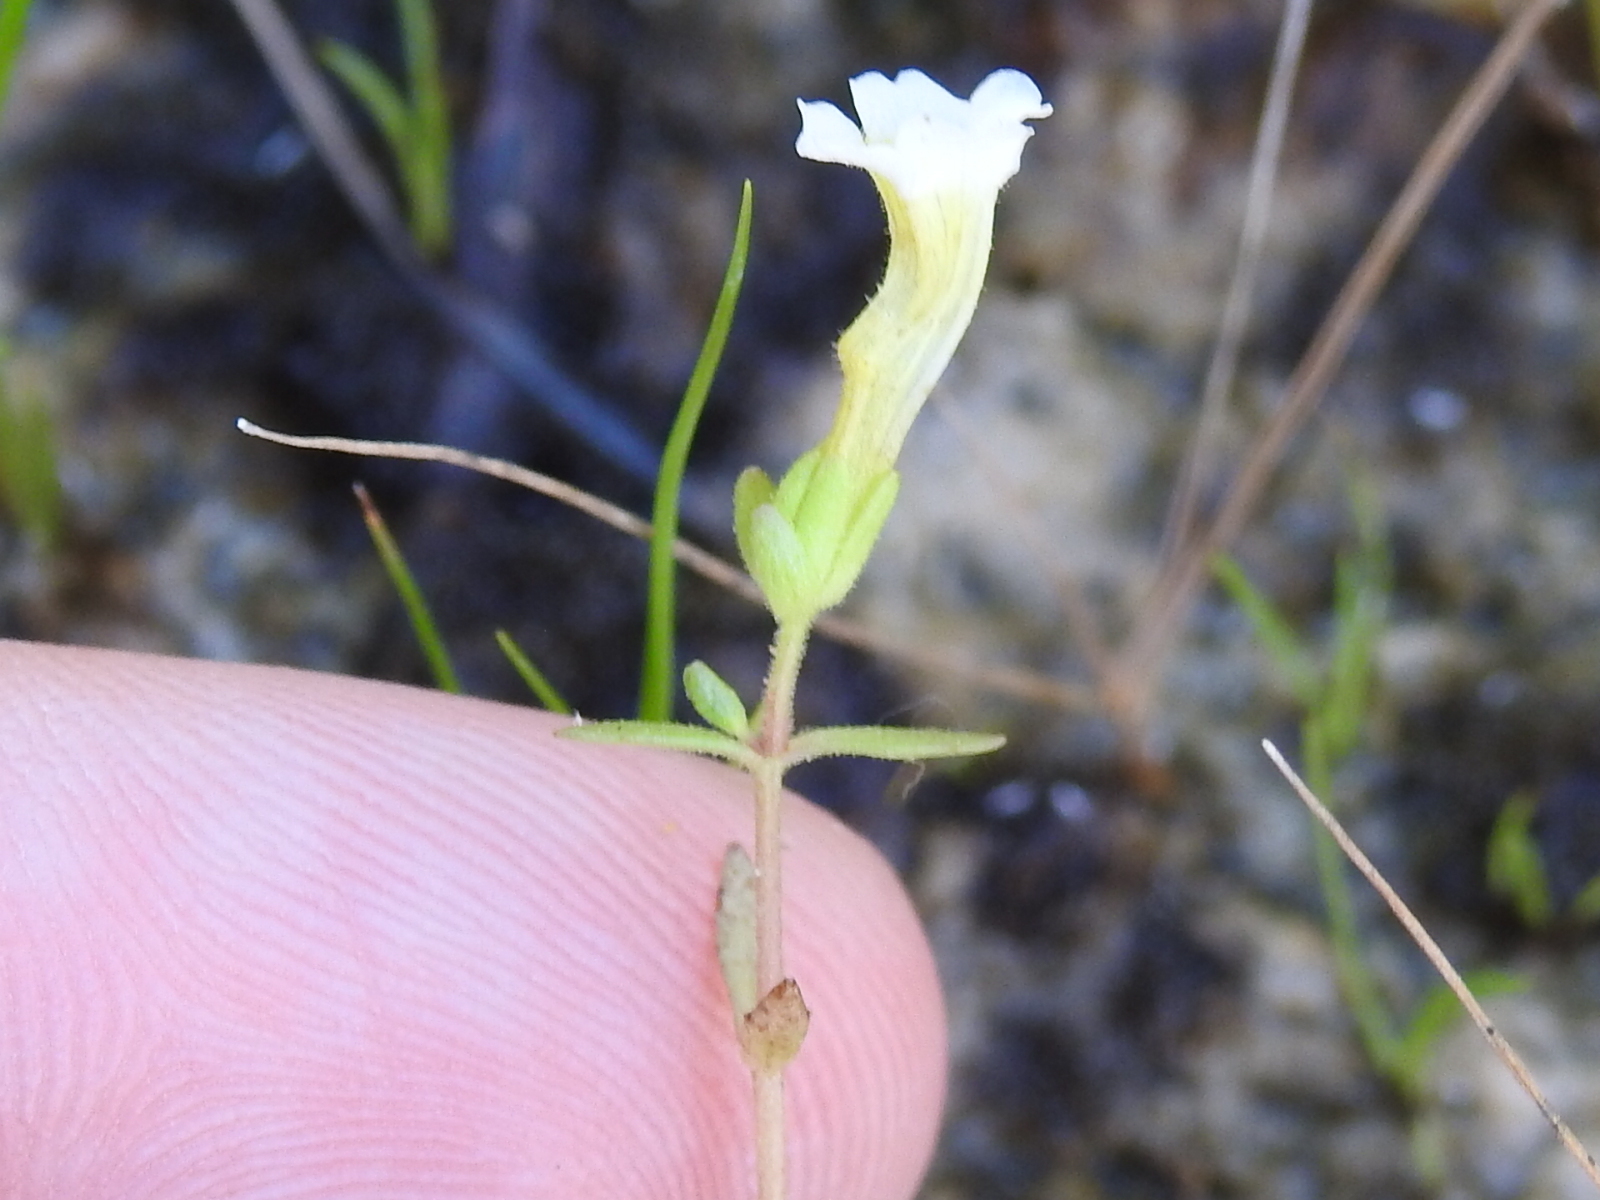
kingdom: Plantae
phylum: Tracheophyta
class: Magnoliopsida
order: Lamiales
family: Plantaginaceae
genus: Gratiola
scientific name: Gratiola quartermaniae
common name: Quarterman's hedge-hyssop
